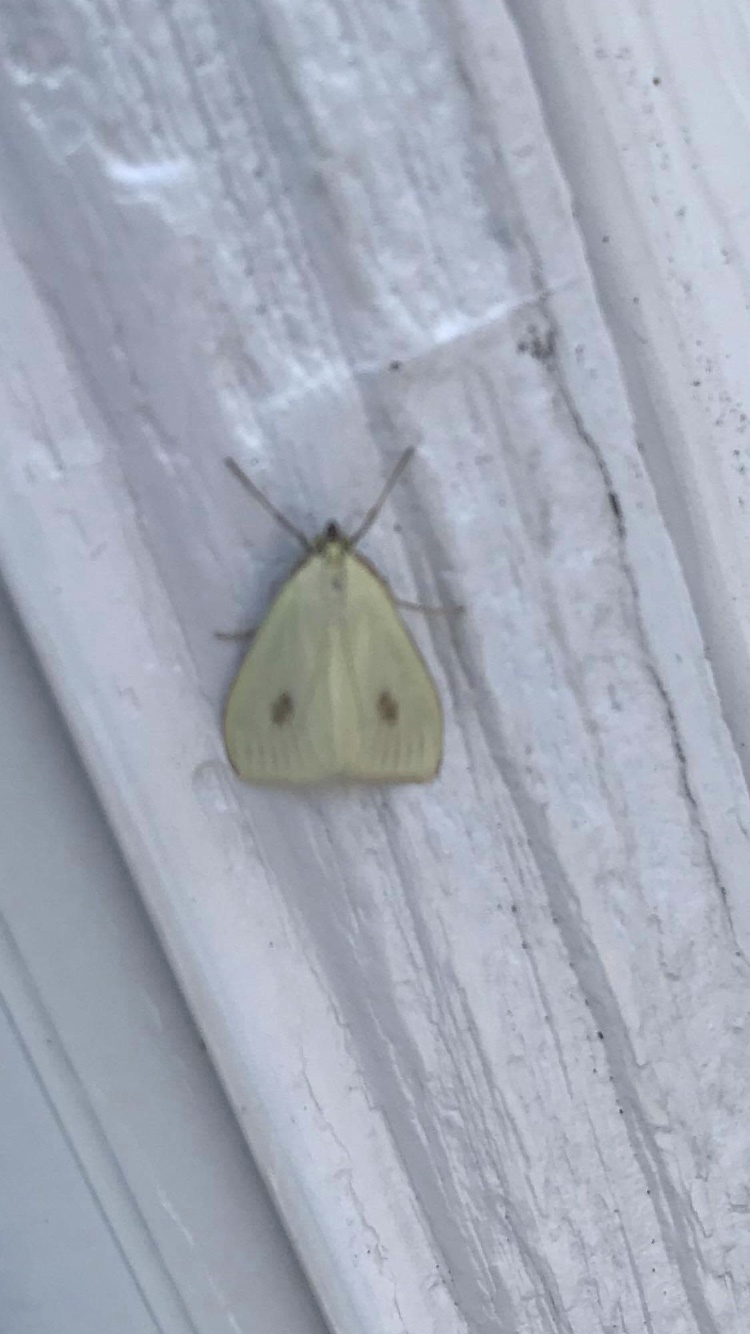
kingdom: Animalia
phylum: Arthropoda
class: Insecta
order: Lepidoptera
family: Crambidae
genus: Sitochroa
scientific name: Sitochroa palealis
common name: Greenish-yellow sitochroa moth
